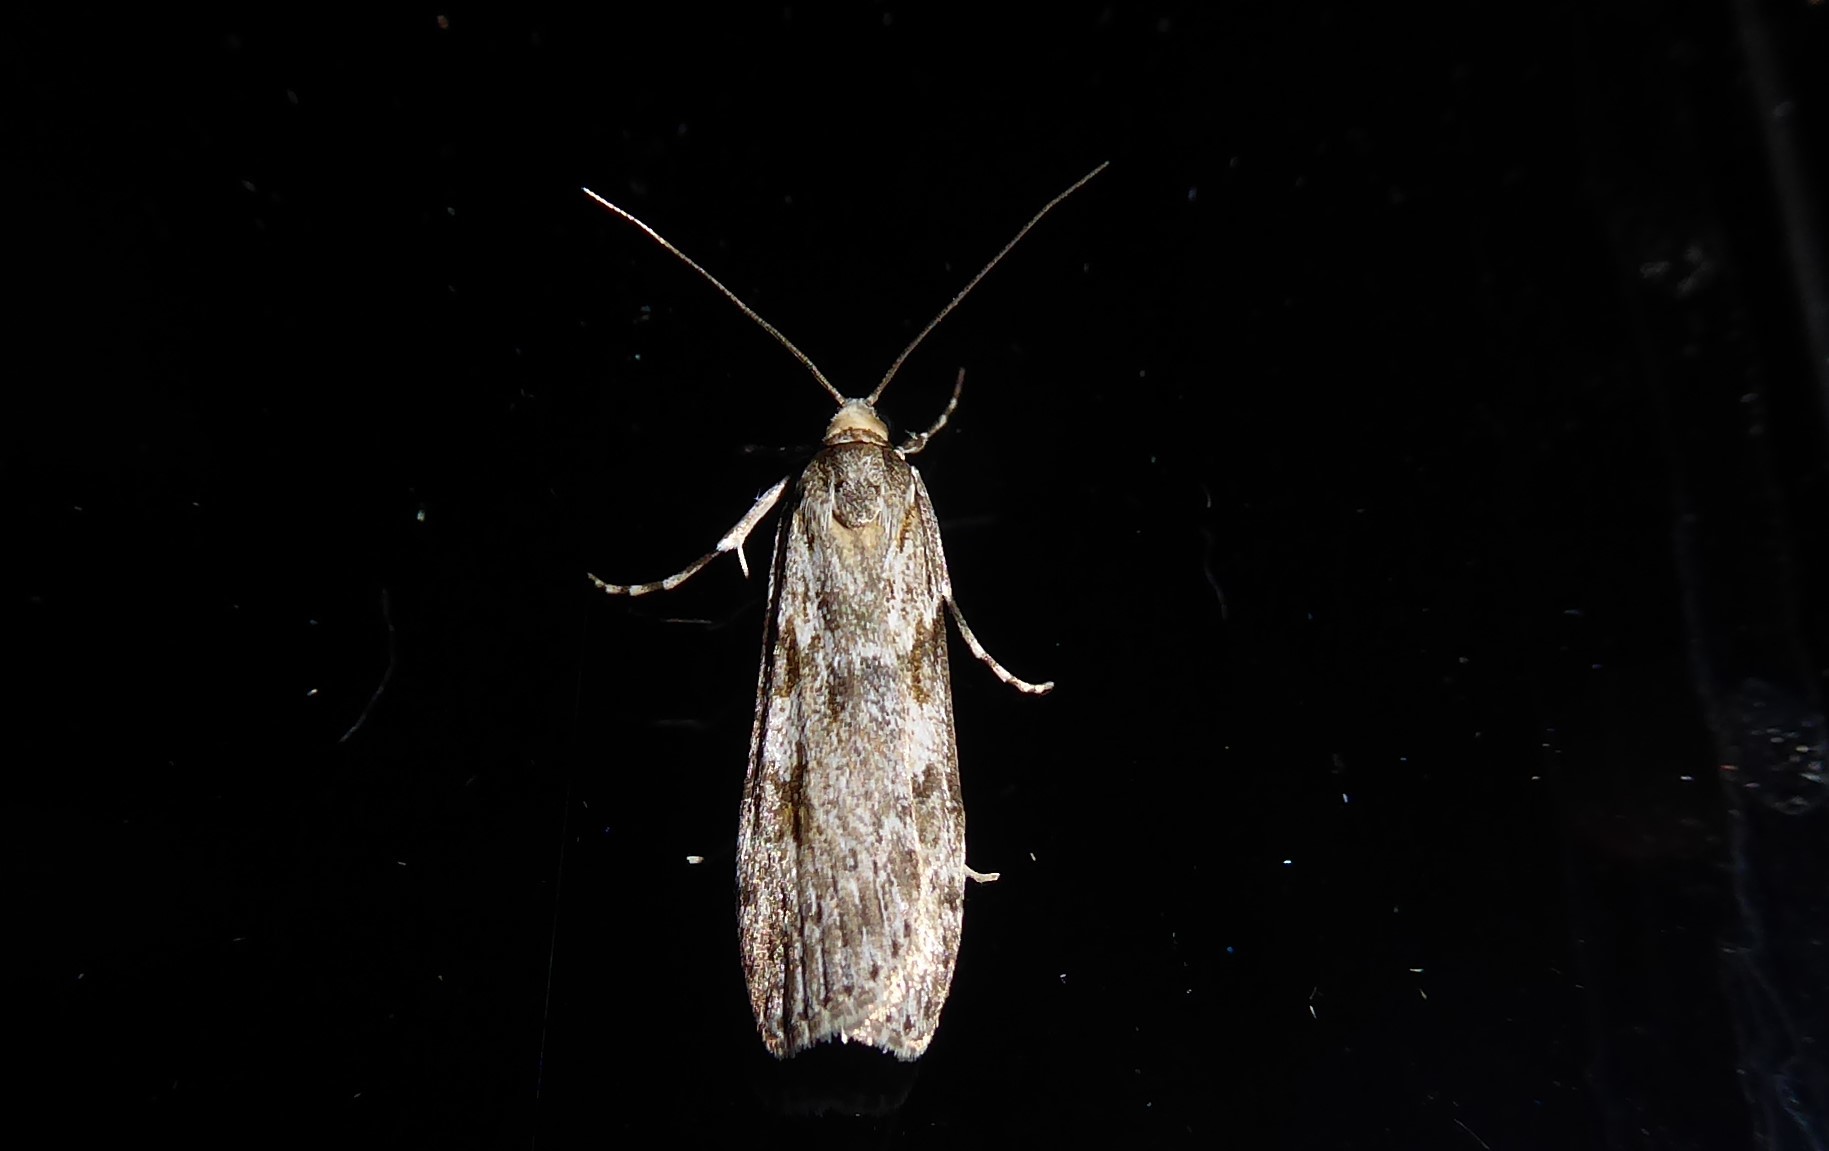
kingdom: Animalia
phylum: Arthropoda
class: Insecta
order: Lepidoptera
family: Crambidae
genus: Scoparia
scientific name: Scoparia halopis
